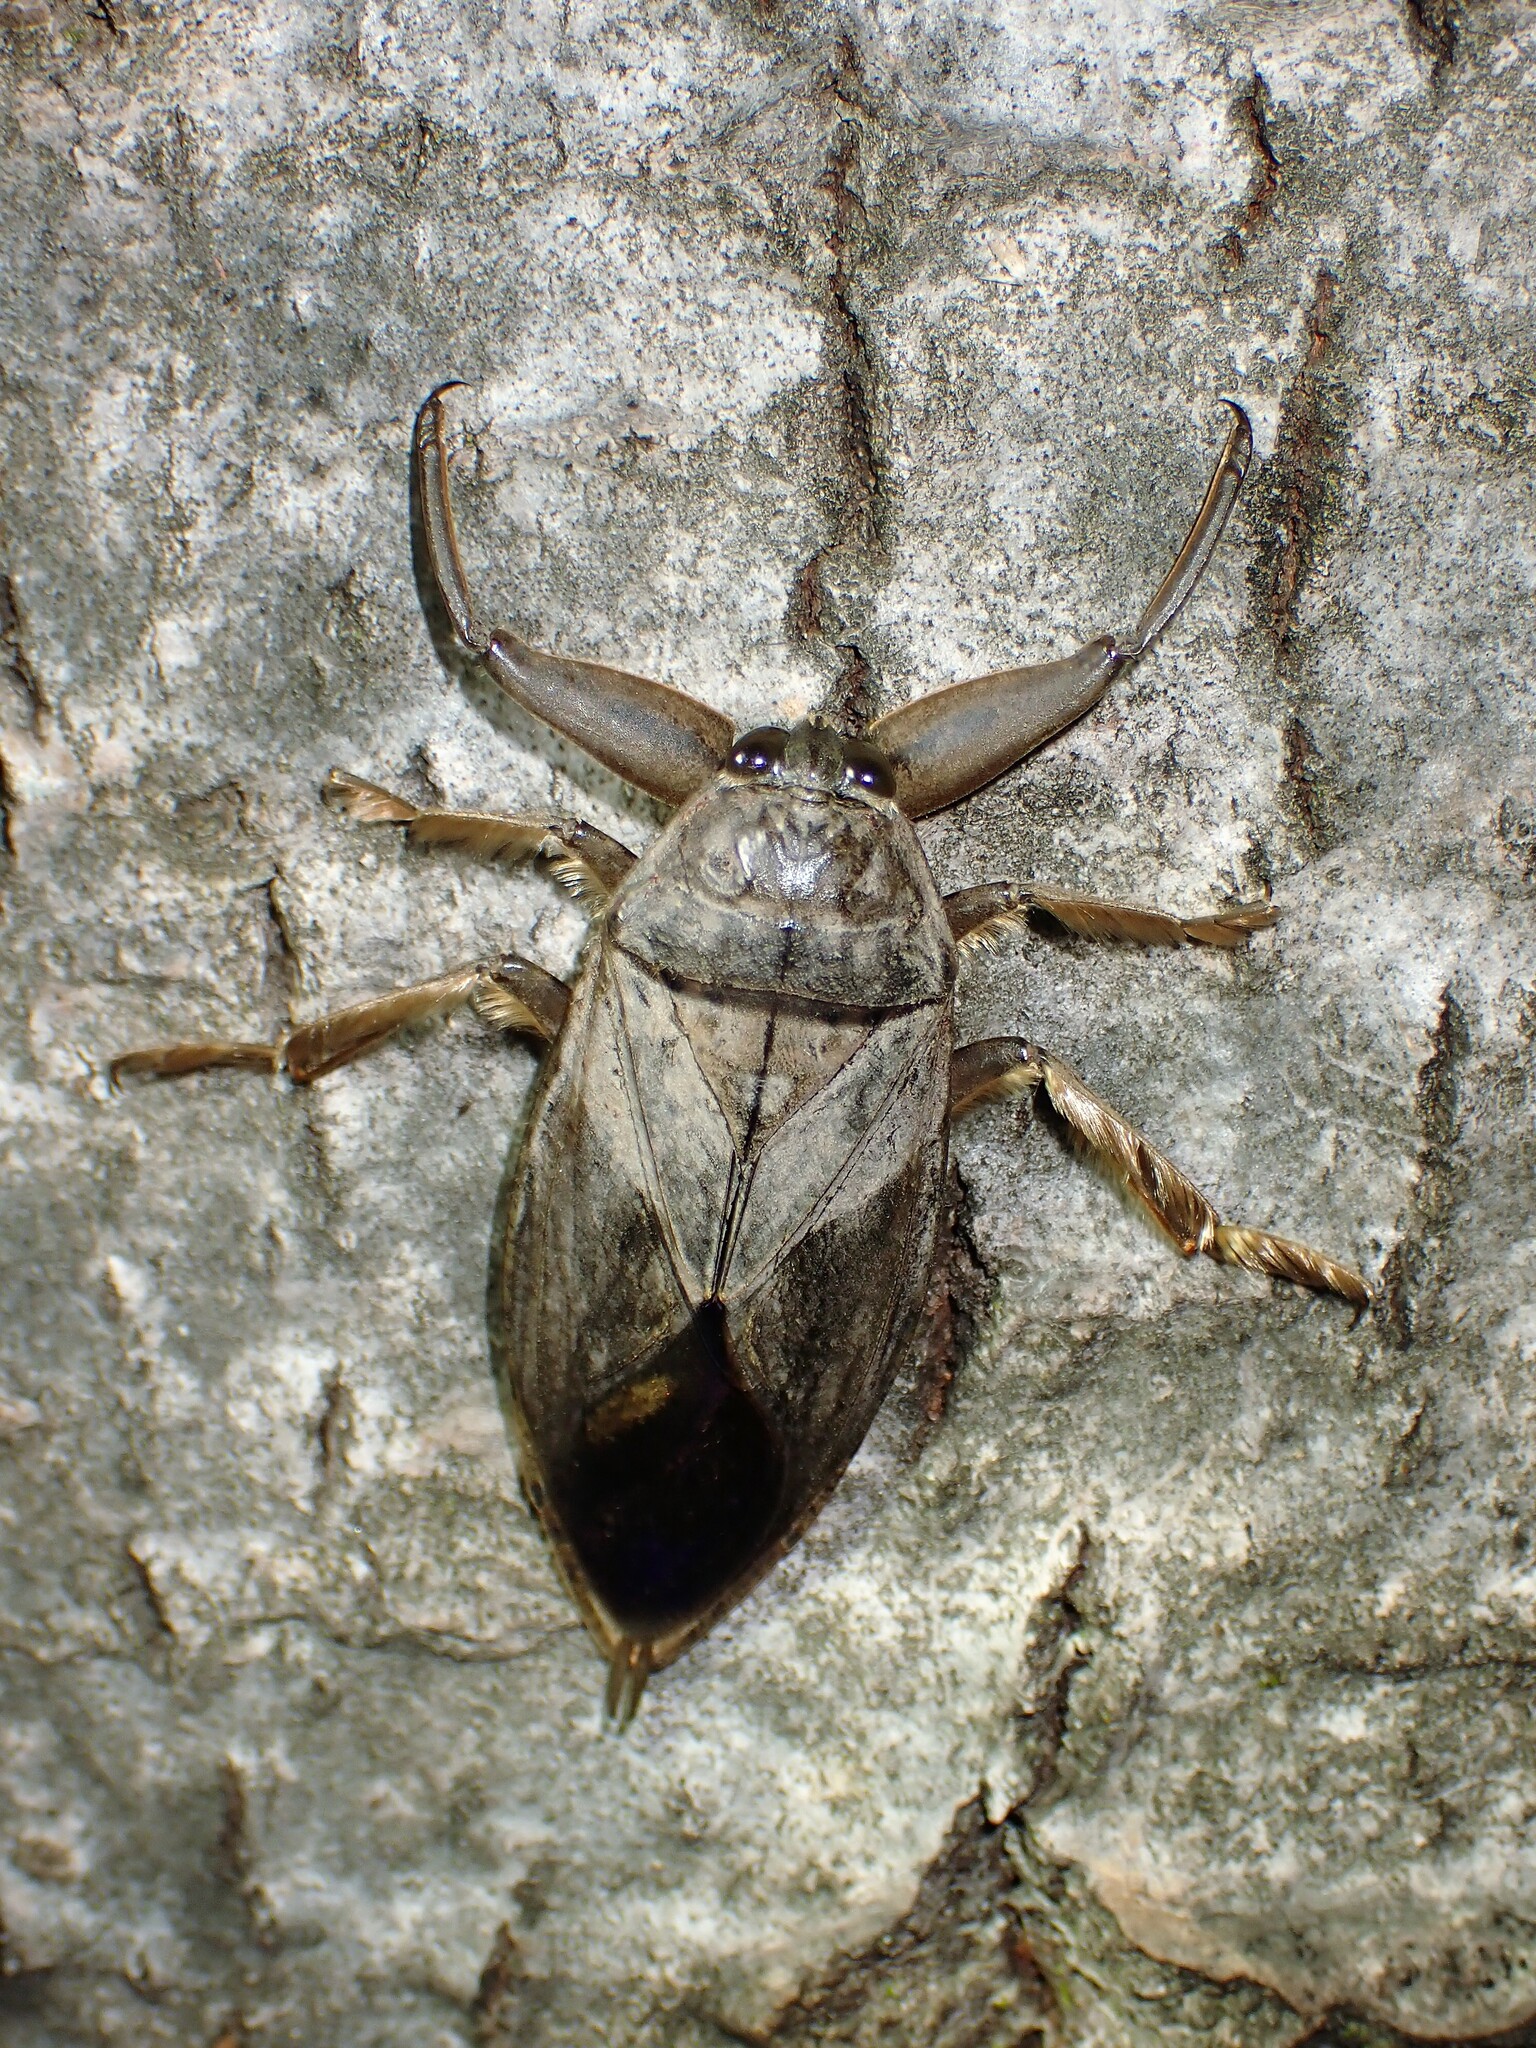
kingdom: Animalia
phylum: Arthropoda
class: Insecta
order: Hemiptera
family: Belostomatidae
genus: Lethocerus
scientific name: Lethocerus americanus
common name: Giant water bug
